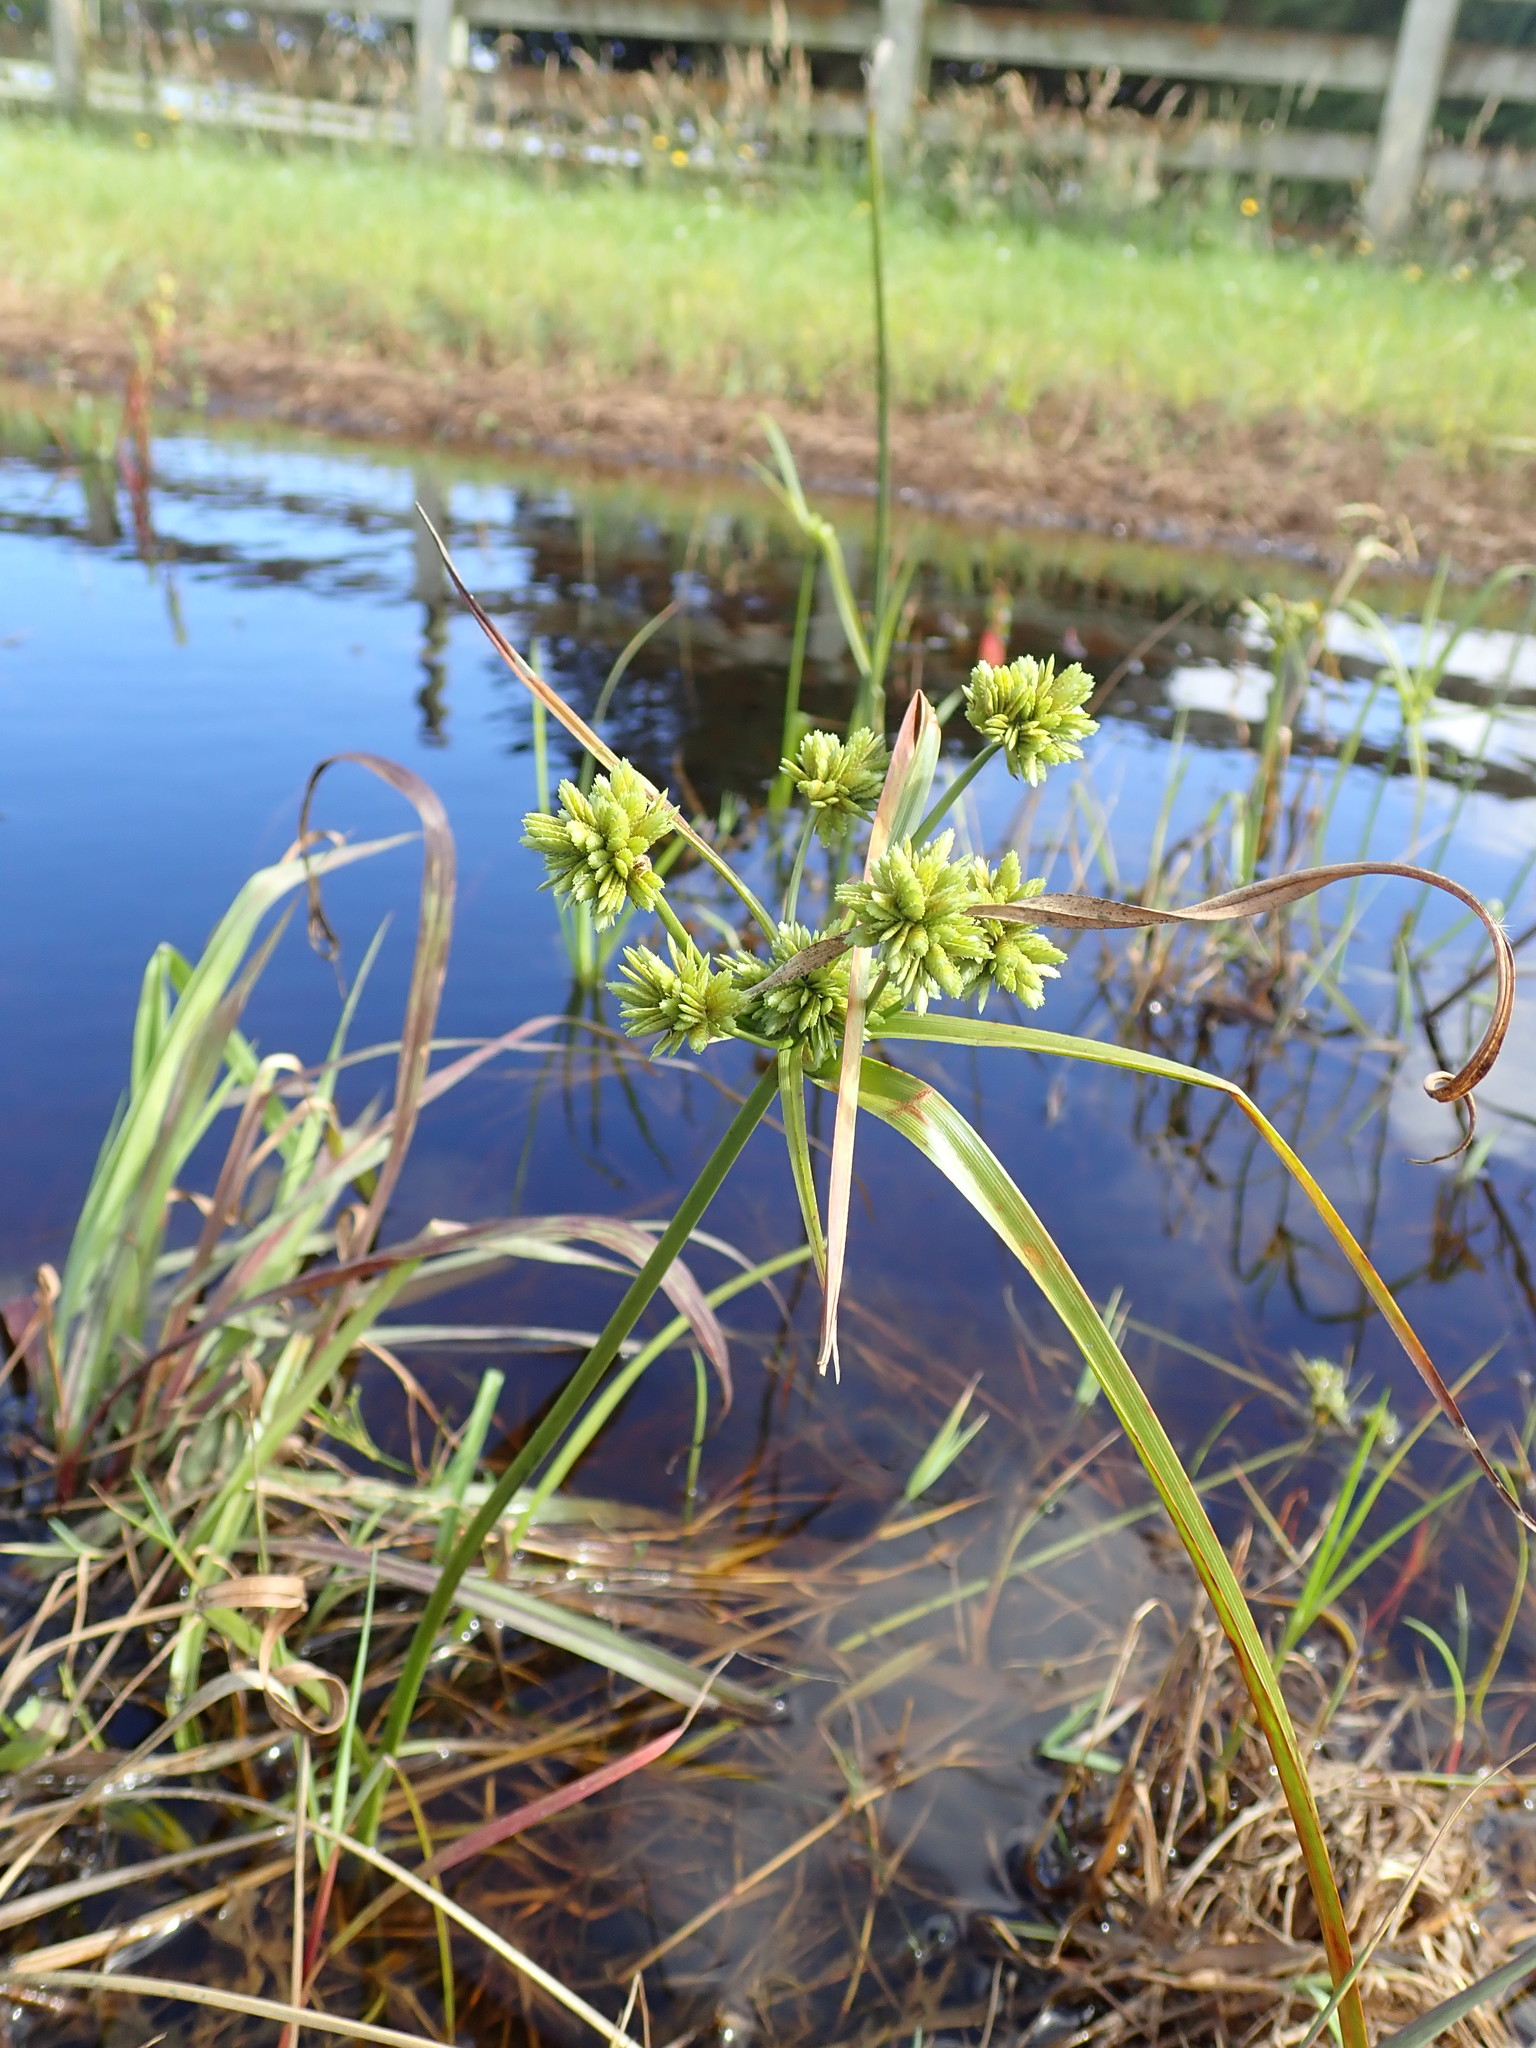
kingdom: Plantae
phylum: Tracheophyta
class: Liliopsida
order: Poales
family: Cyperaceae
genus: Cyperus
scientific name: Cyperus eragrostis
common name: Tall flatsedge
